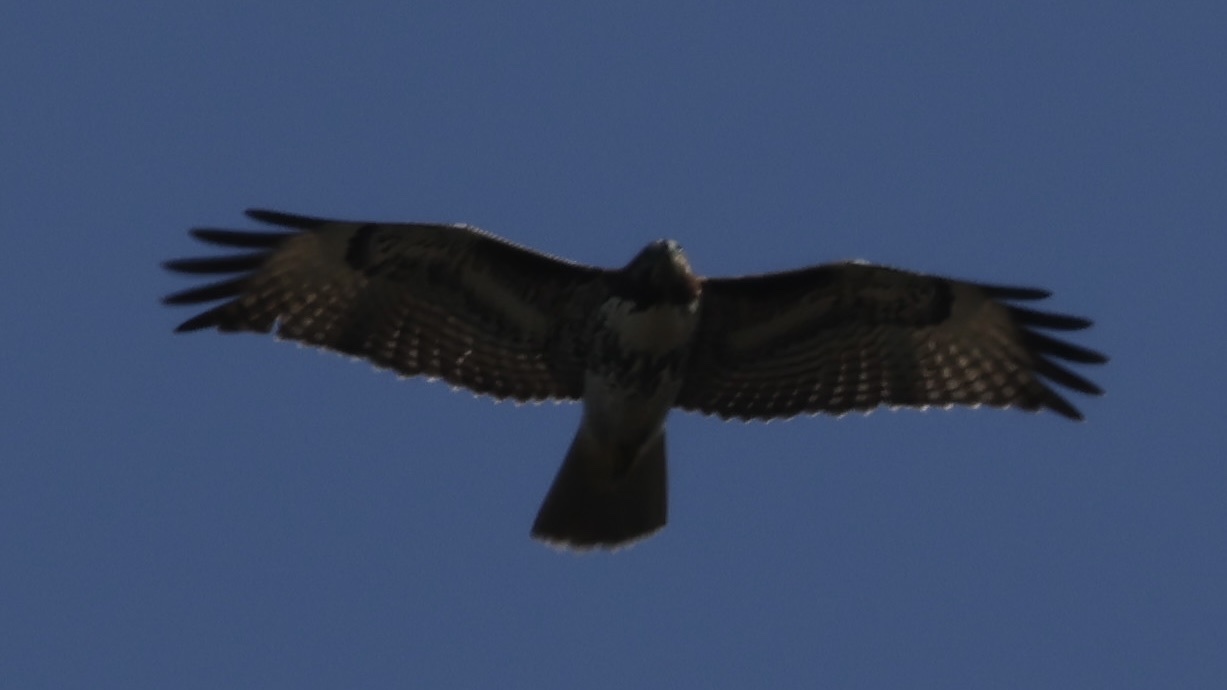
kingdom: Animalia
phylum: Chordata
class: Aves
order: Accipitriformes
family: Accipitridae
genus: Buteo
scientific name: Buteo jamaicensis
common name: Red-tailed hawk
